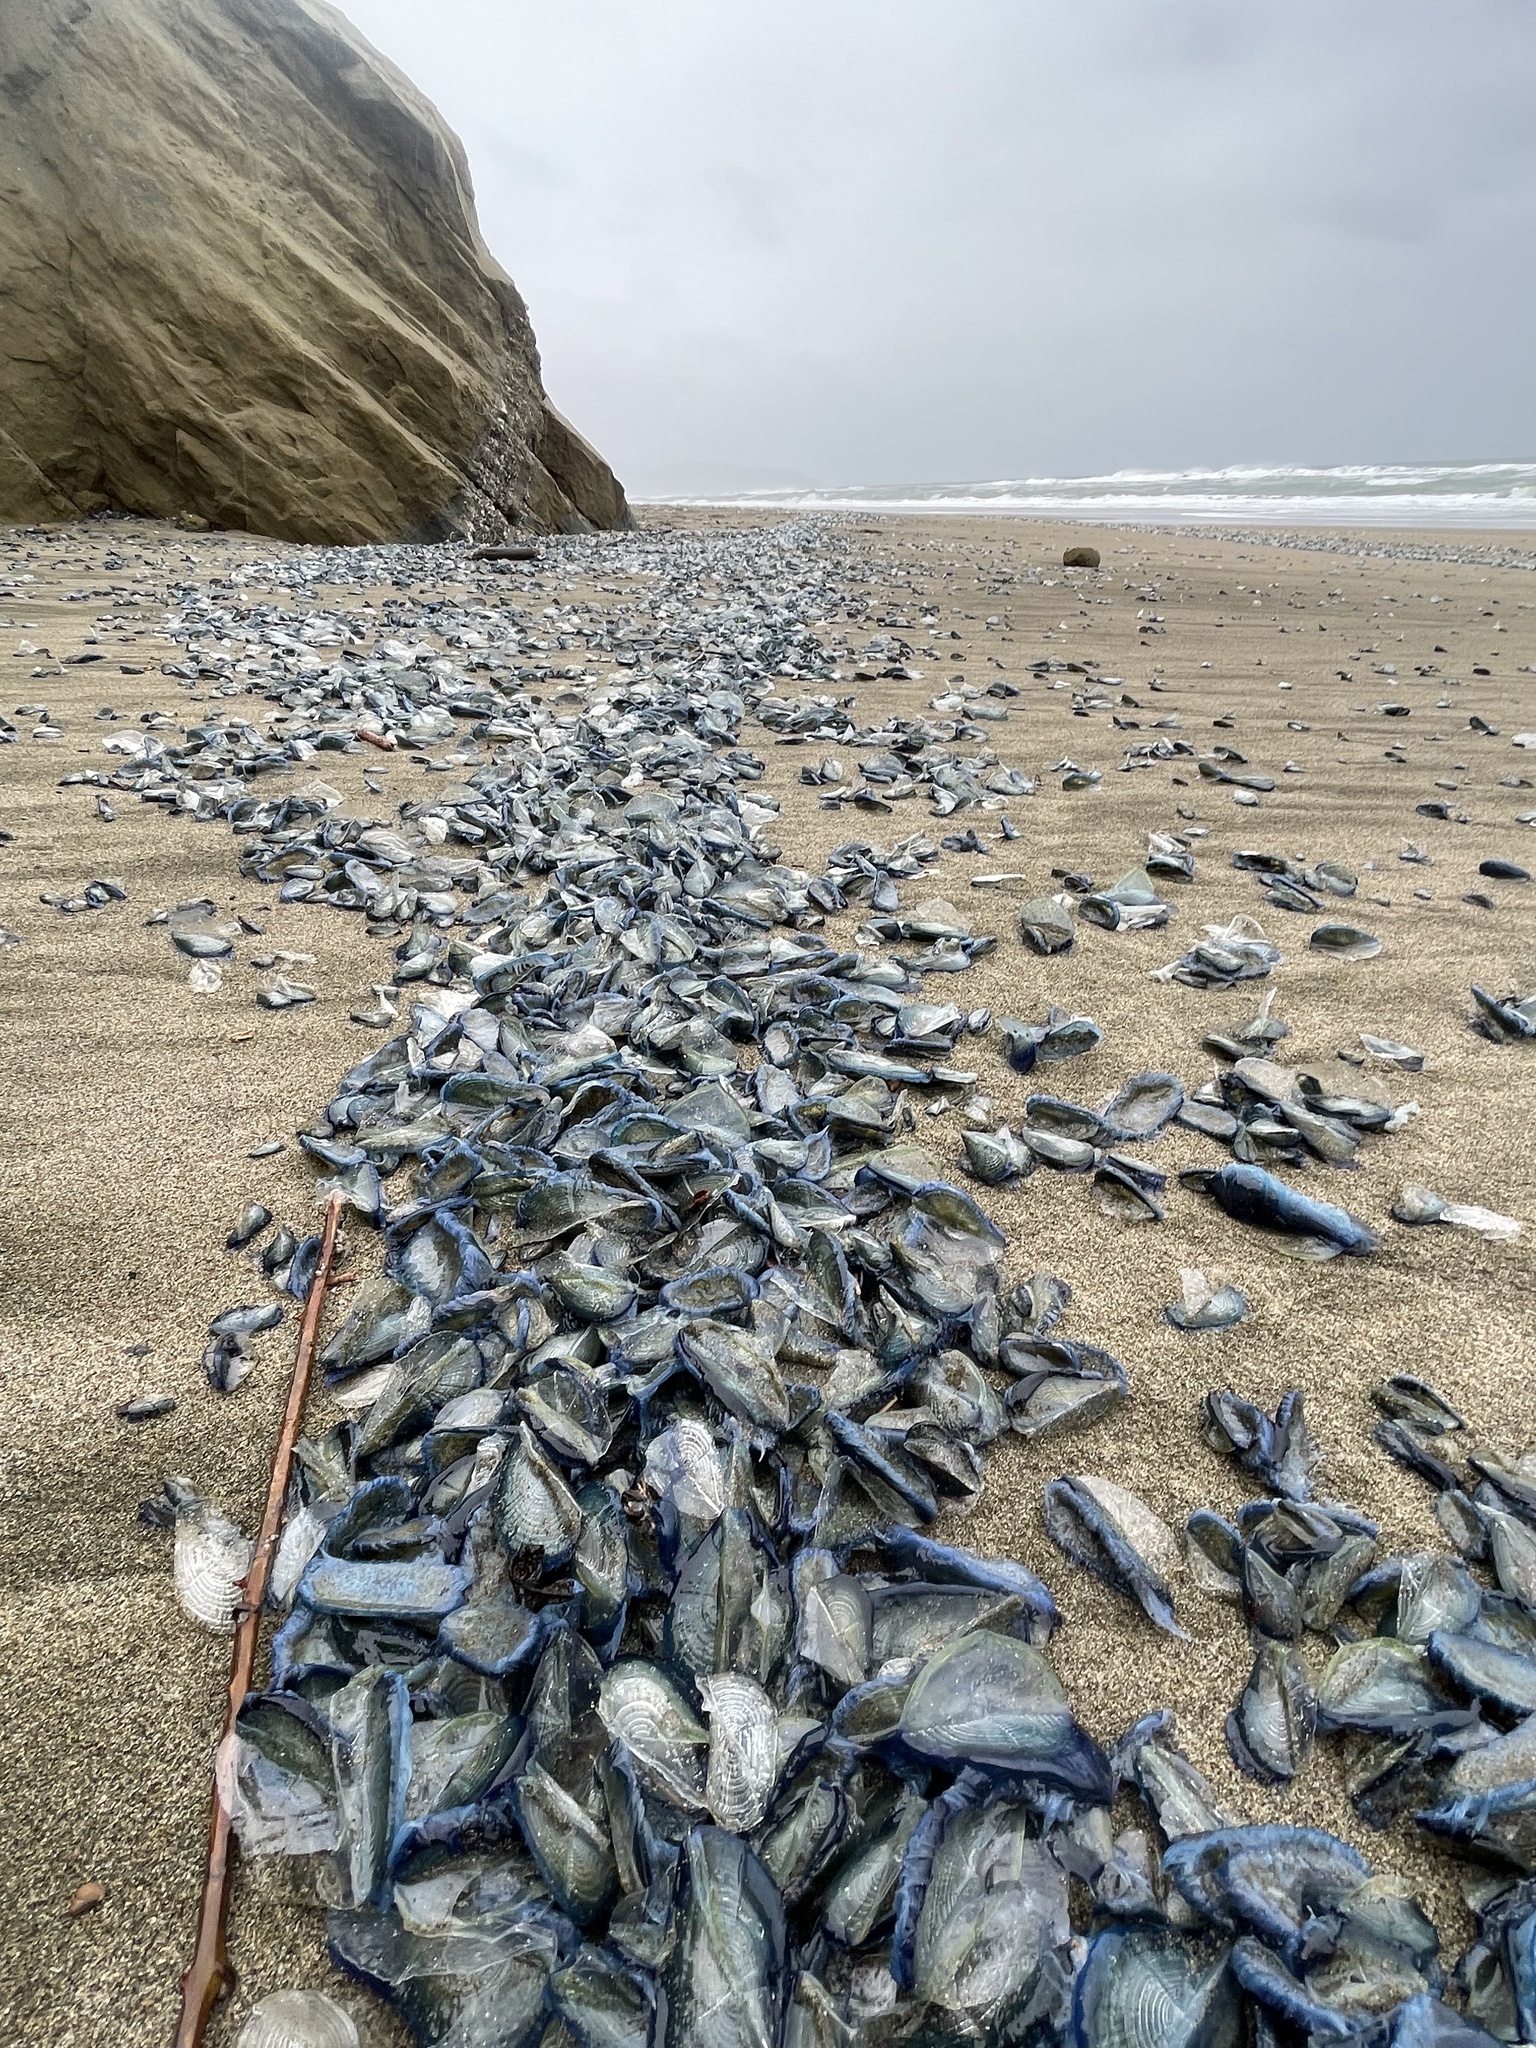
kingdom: Animalia
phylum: Cnidaria
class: Hydrozoa
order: Anthoathecata
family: Porpitidae
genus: Velella
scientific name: Velella velella
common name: By-the-wind-sailor
